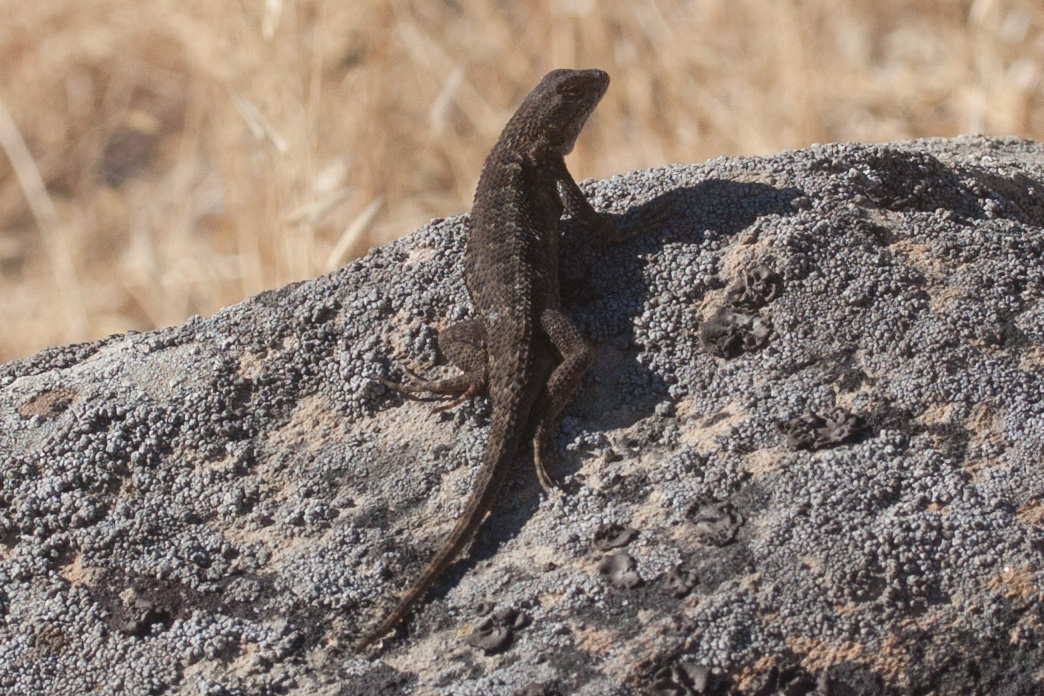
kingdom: Animalia
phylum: Chordata
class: Squamata
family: Phrynosomatidae
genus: Sceloporus
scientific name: Sceloporus occidentalis
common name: Western fence lizard
